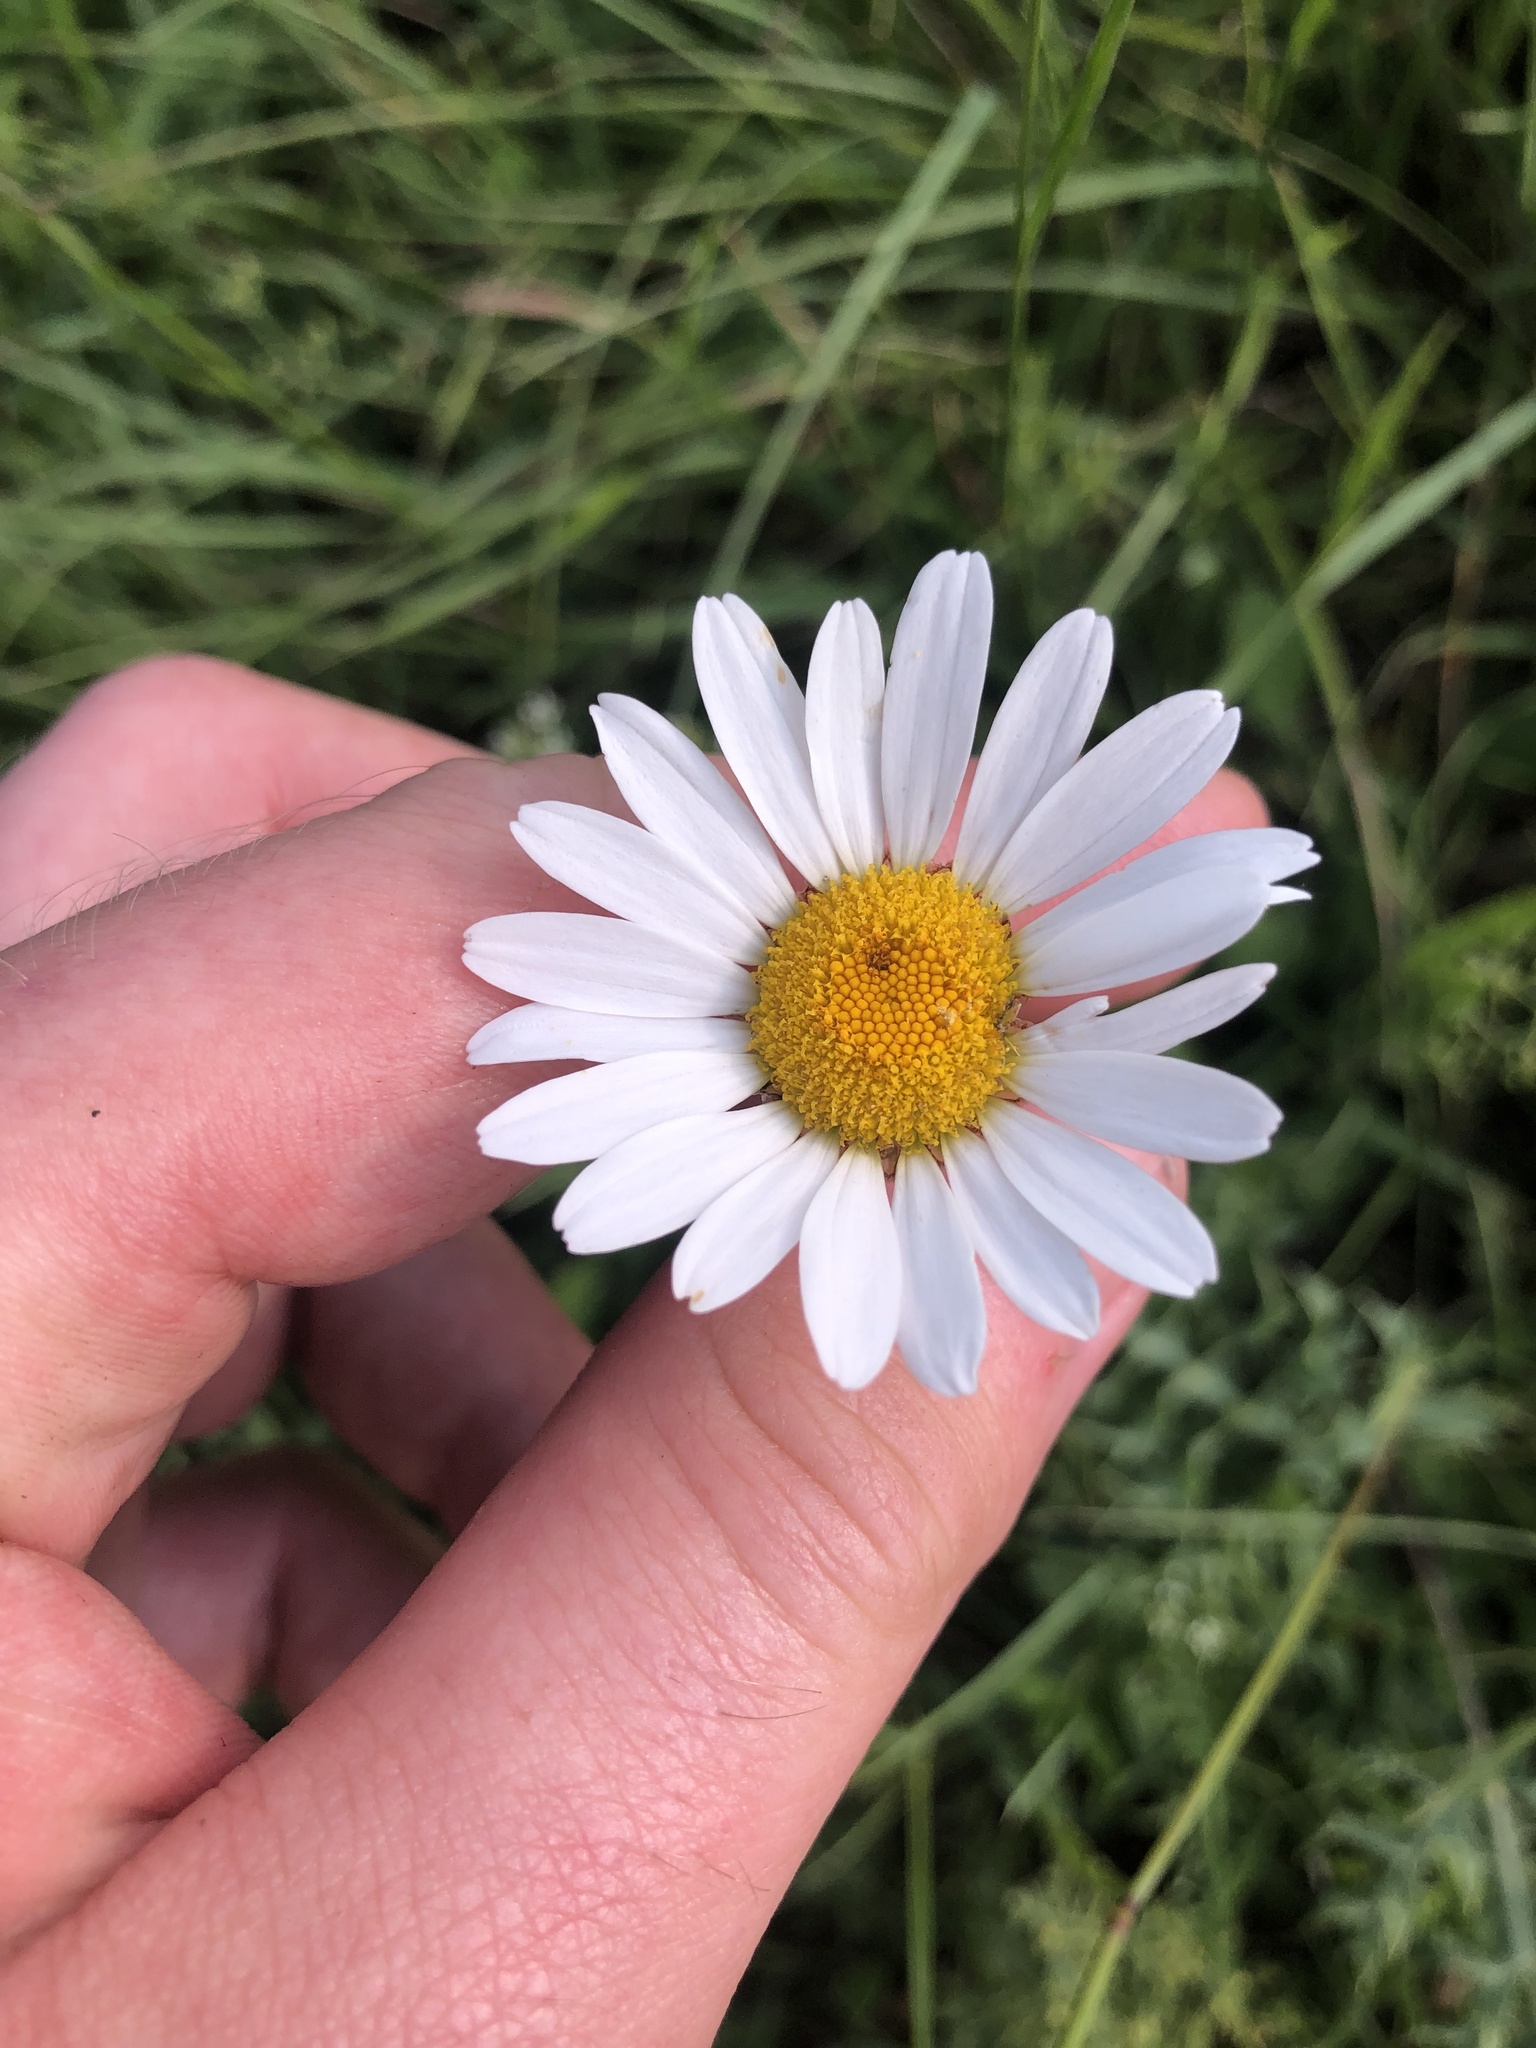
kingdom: Plantae
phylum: Tracheophyta
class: Magnoliopsida
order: Asterales
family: Asteraceae
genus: Leucanthemum
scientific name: Leucanthemum vulgare
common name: Oxeye daisy
